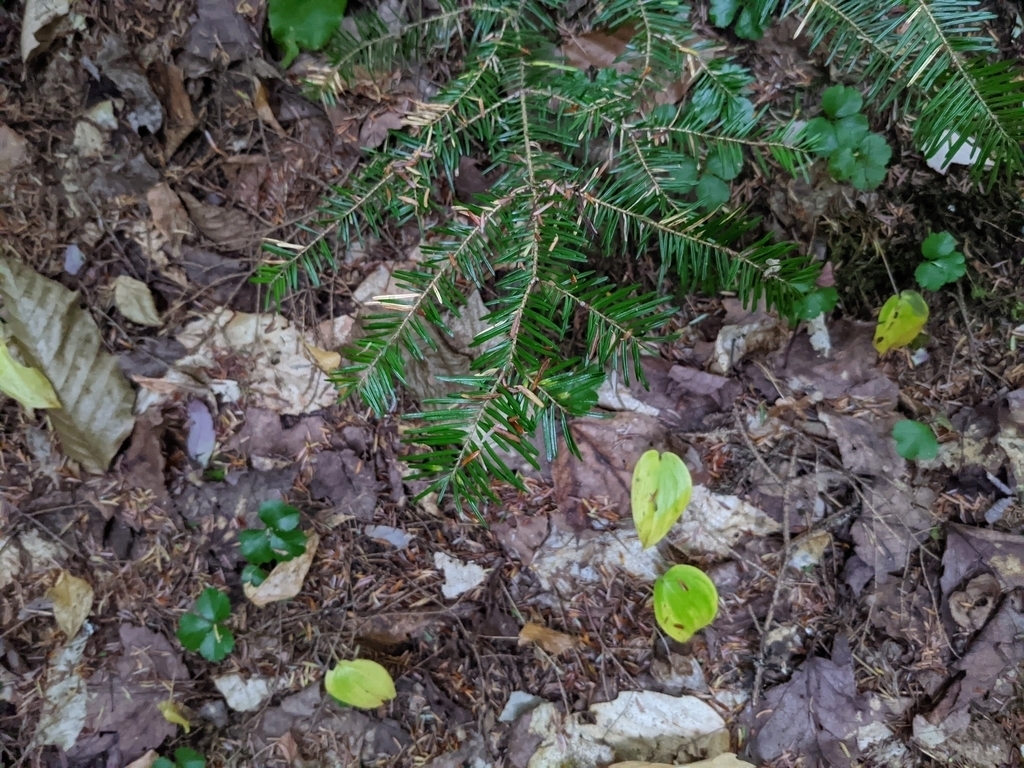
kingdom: Animalia
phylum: Arthropoda
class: Insecta
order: Diptera
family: Cecidomyiidae
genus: Paradiplosis
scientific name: Paradiplosis tumifex
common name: Gall midge
